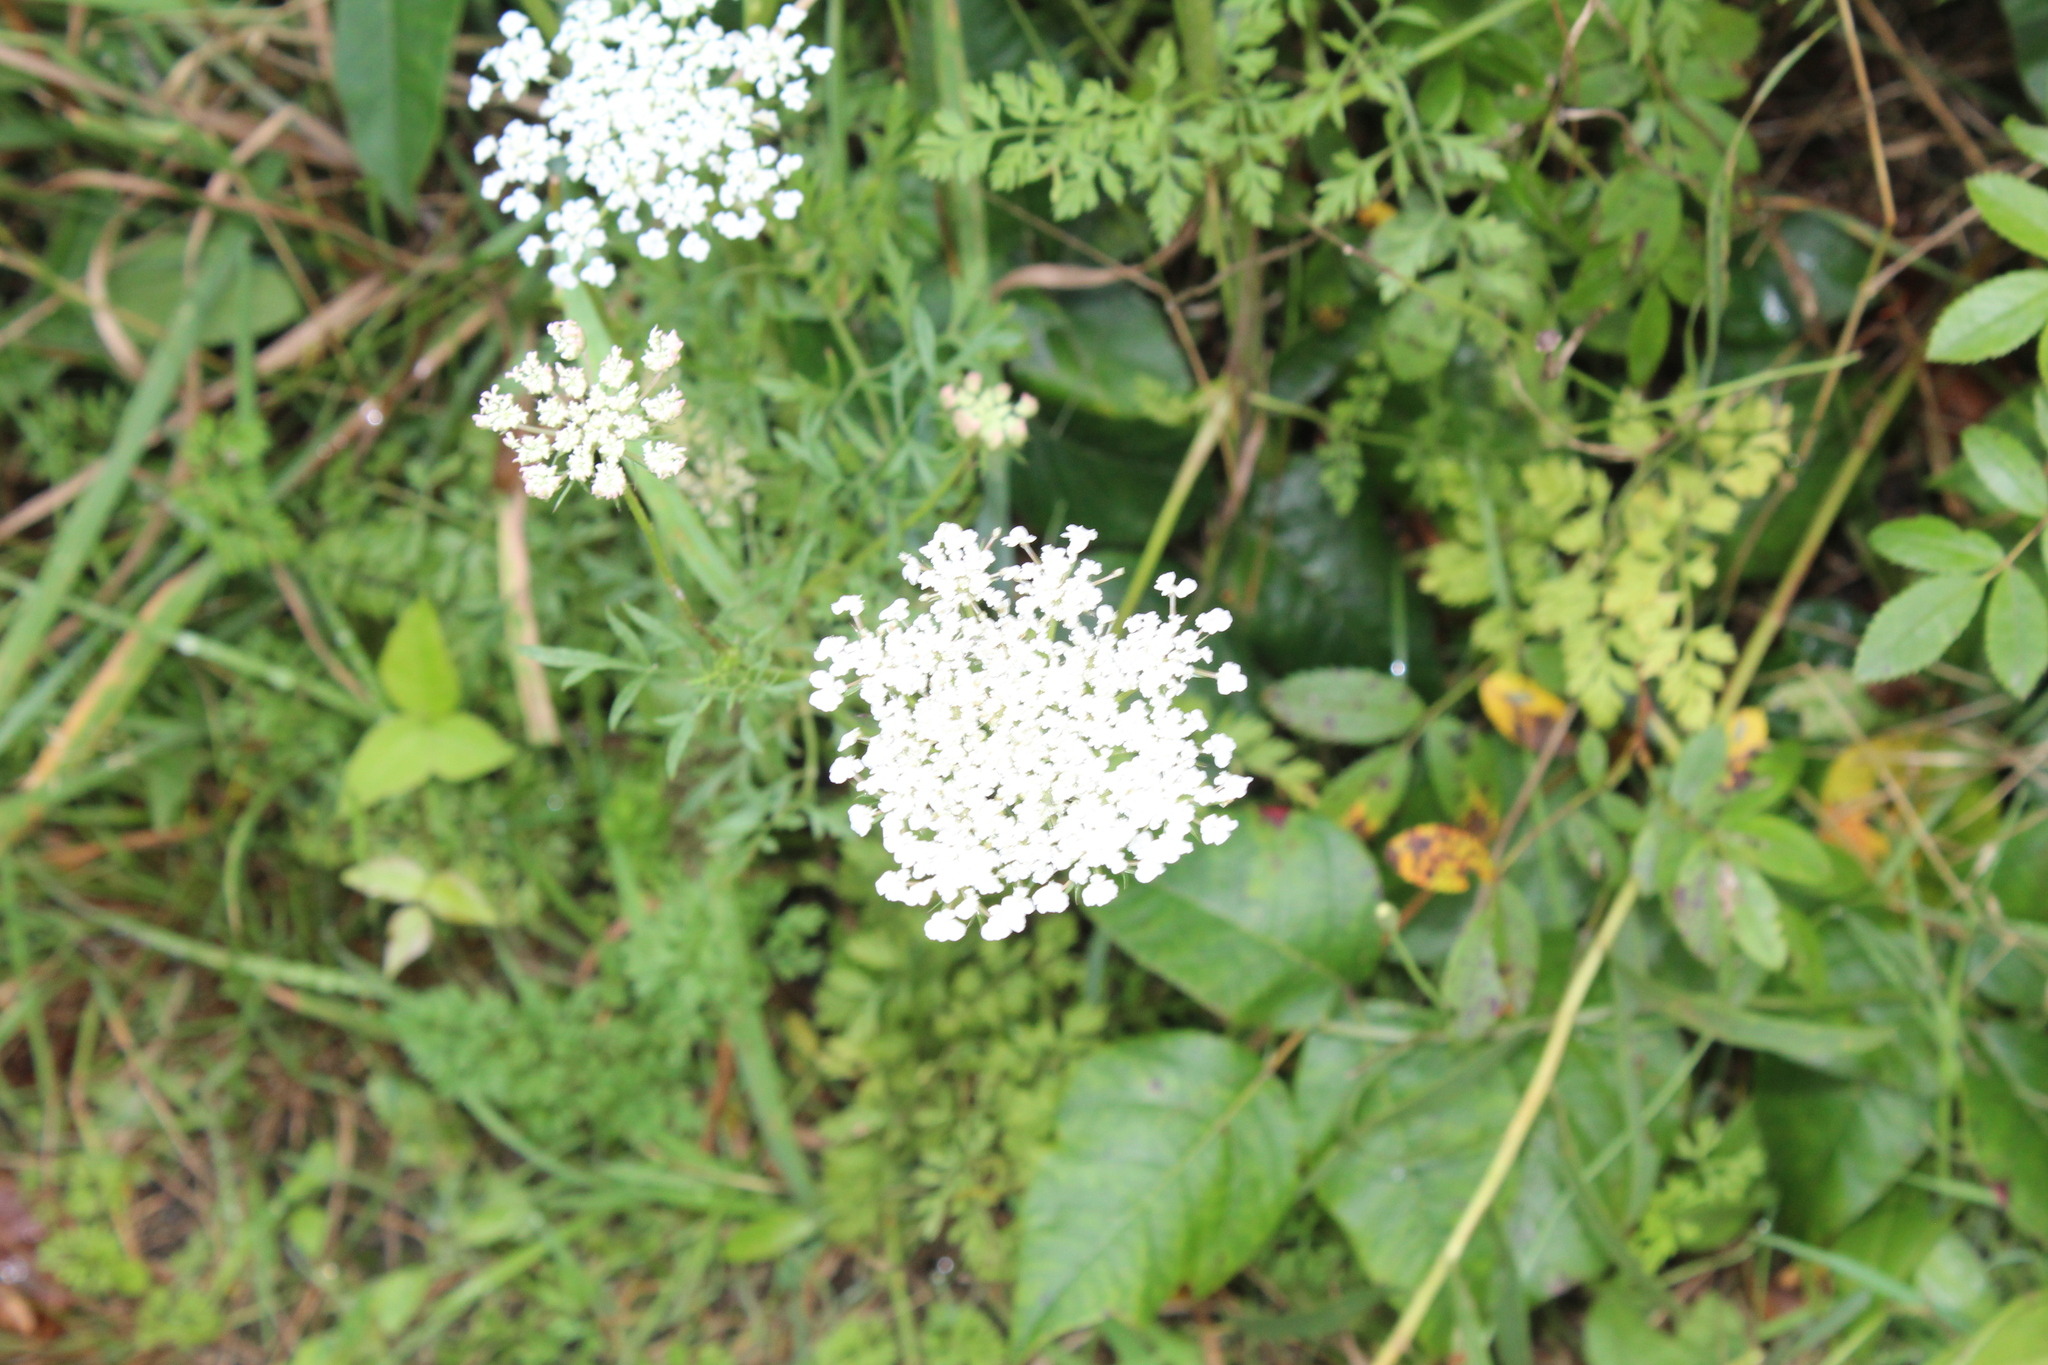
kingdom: Plantae
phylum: Tracheophyta
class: Magnoliopsida
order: Apiales
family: Apiaceae
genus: Daucus
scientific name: Daucus carota
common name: Wild carrot
